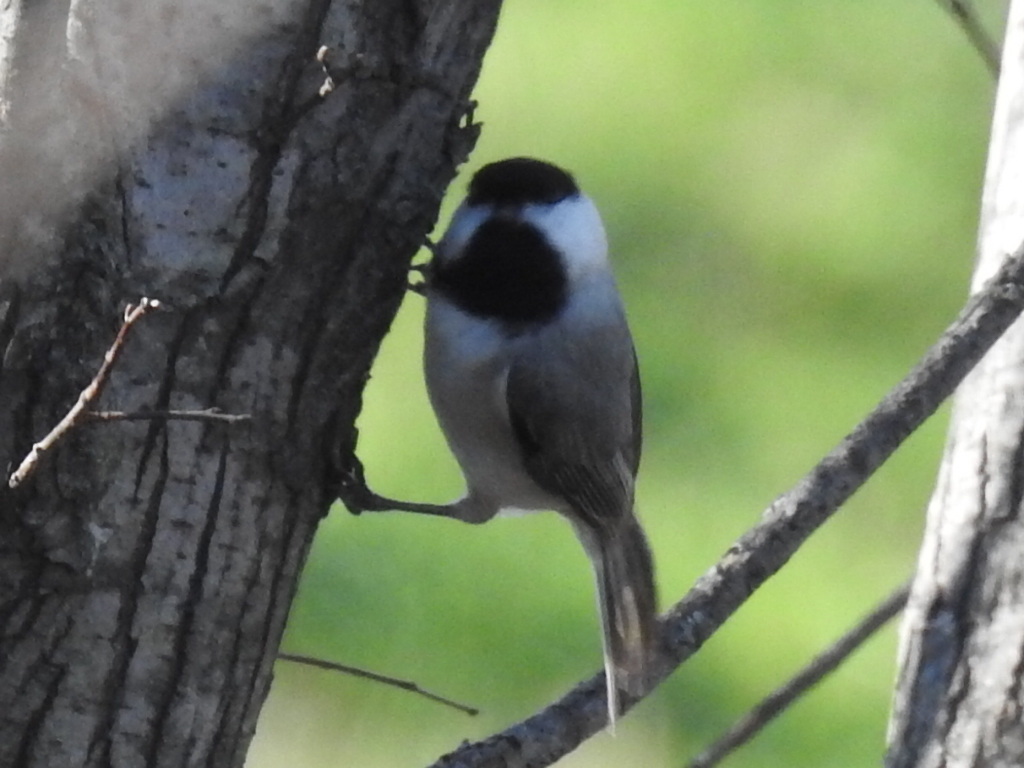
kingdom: Animalia
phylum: Chordata
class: Aves
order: Passeriformes
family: Paridae
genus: Poecile
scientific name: Poecile carolinensis
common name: Carolina chickadee
